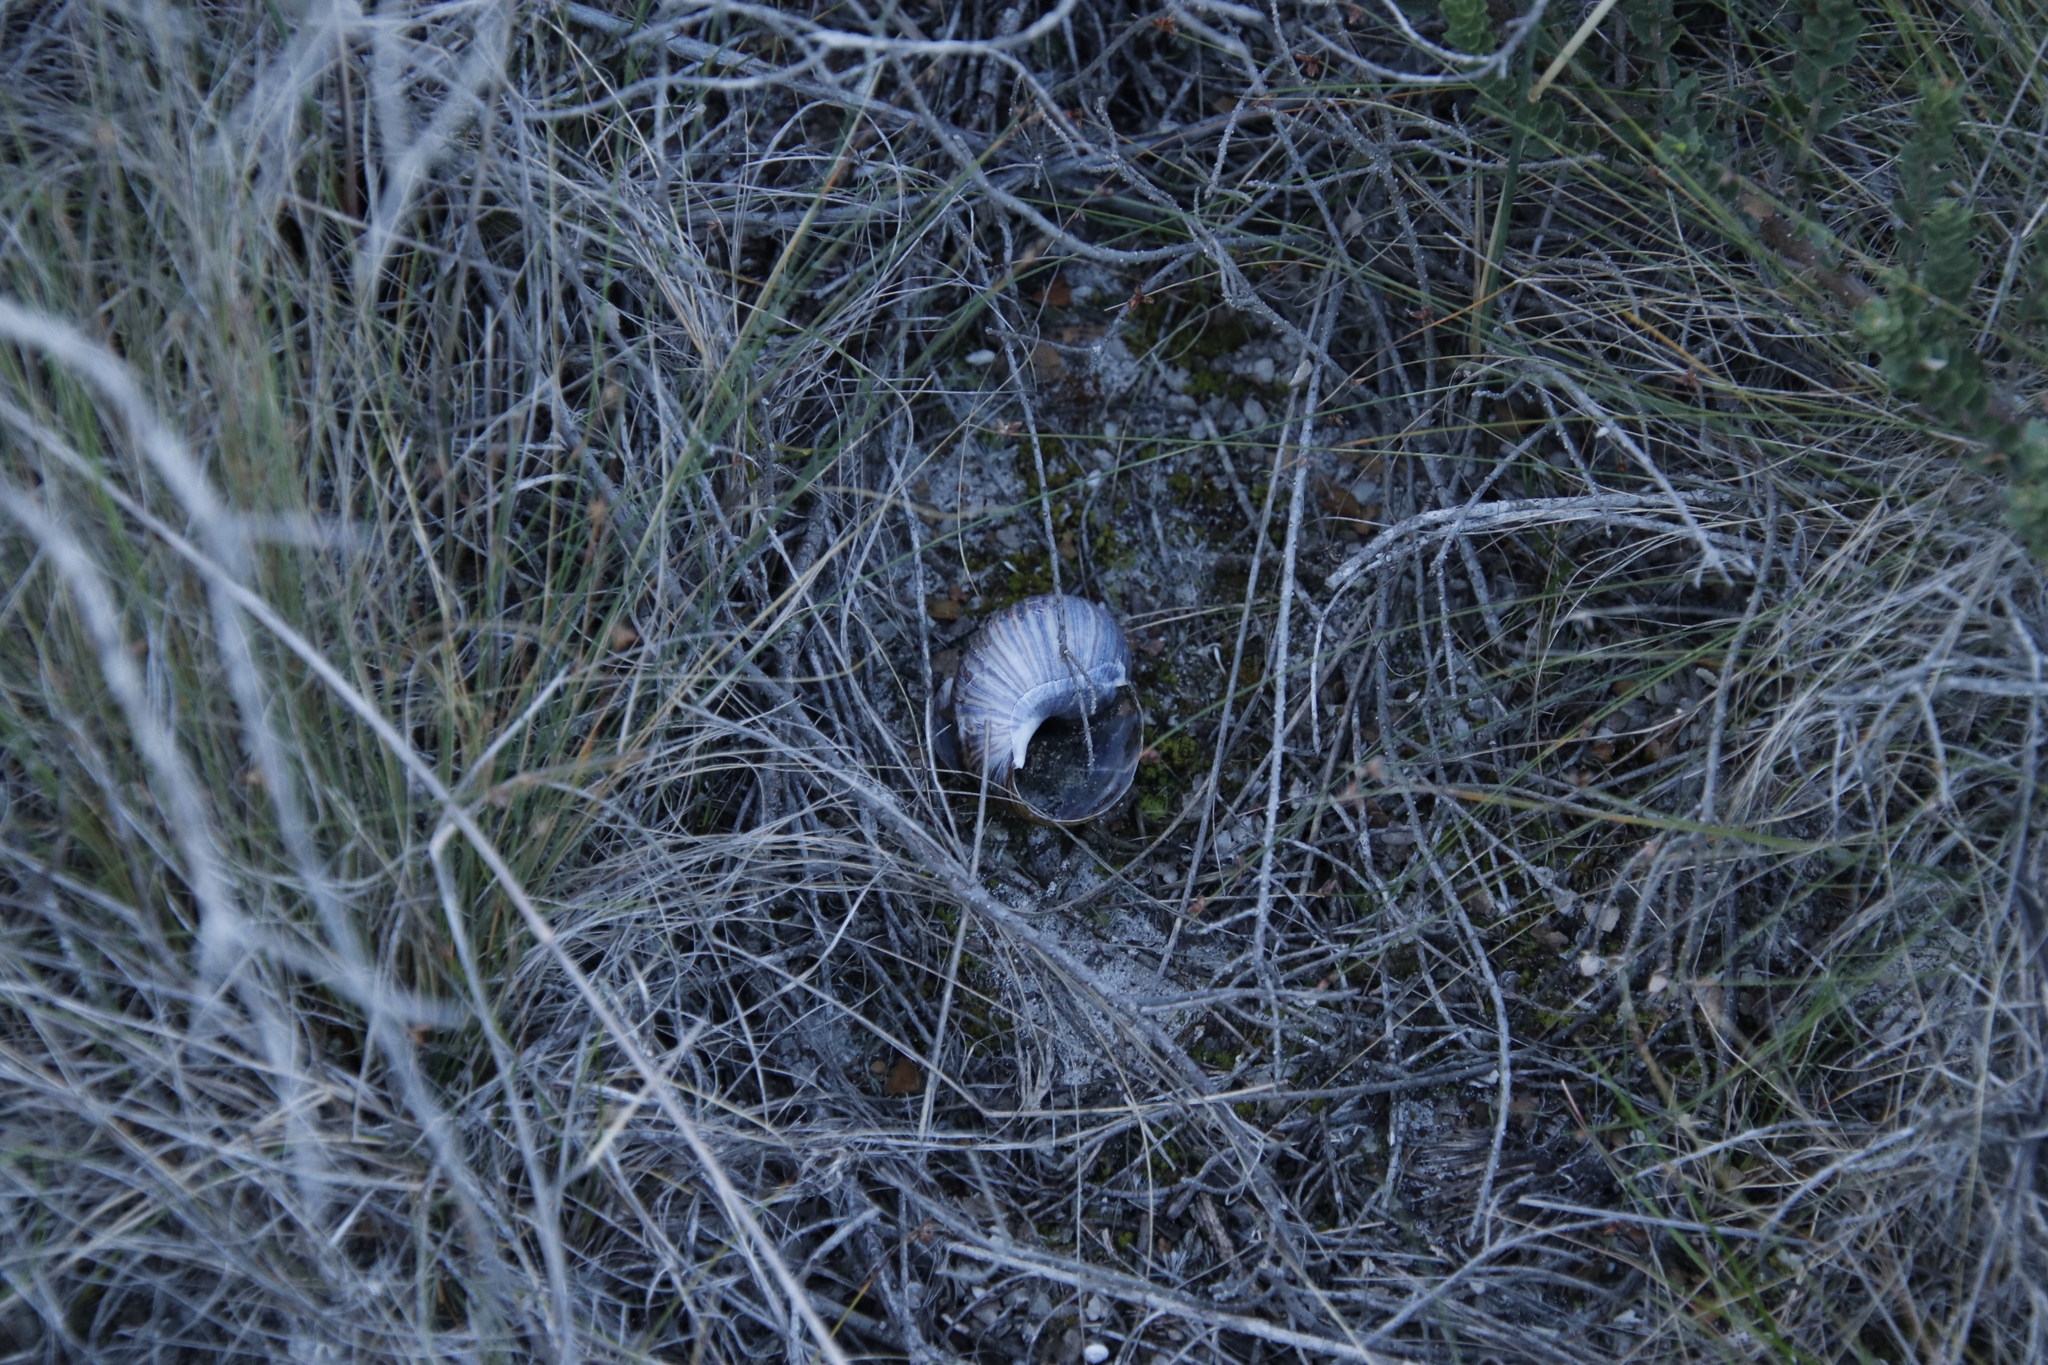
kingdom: Animalia
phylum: Mollusca
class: Gastropoda
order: Stylommatophora
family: Achatinidae
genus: Cochlitoma
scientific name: Cochlitoma zebra
